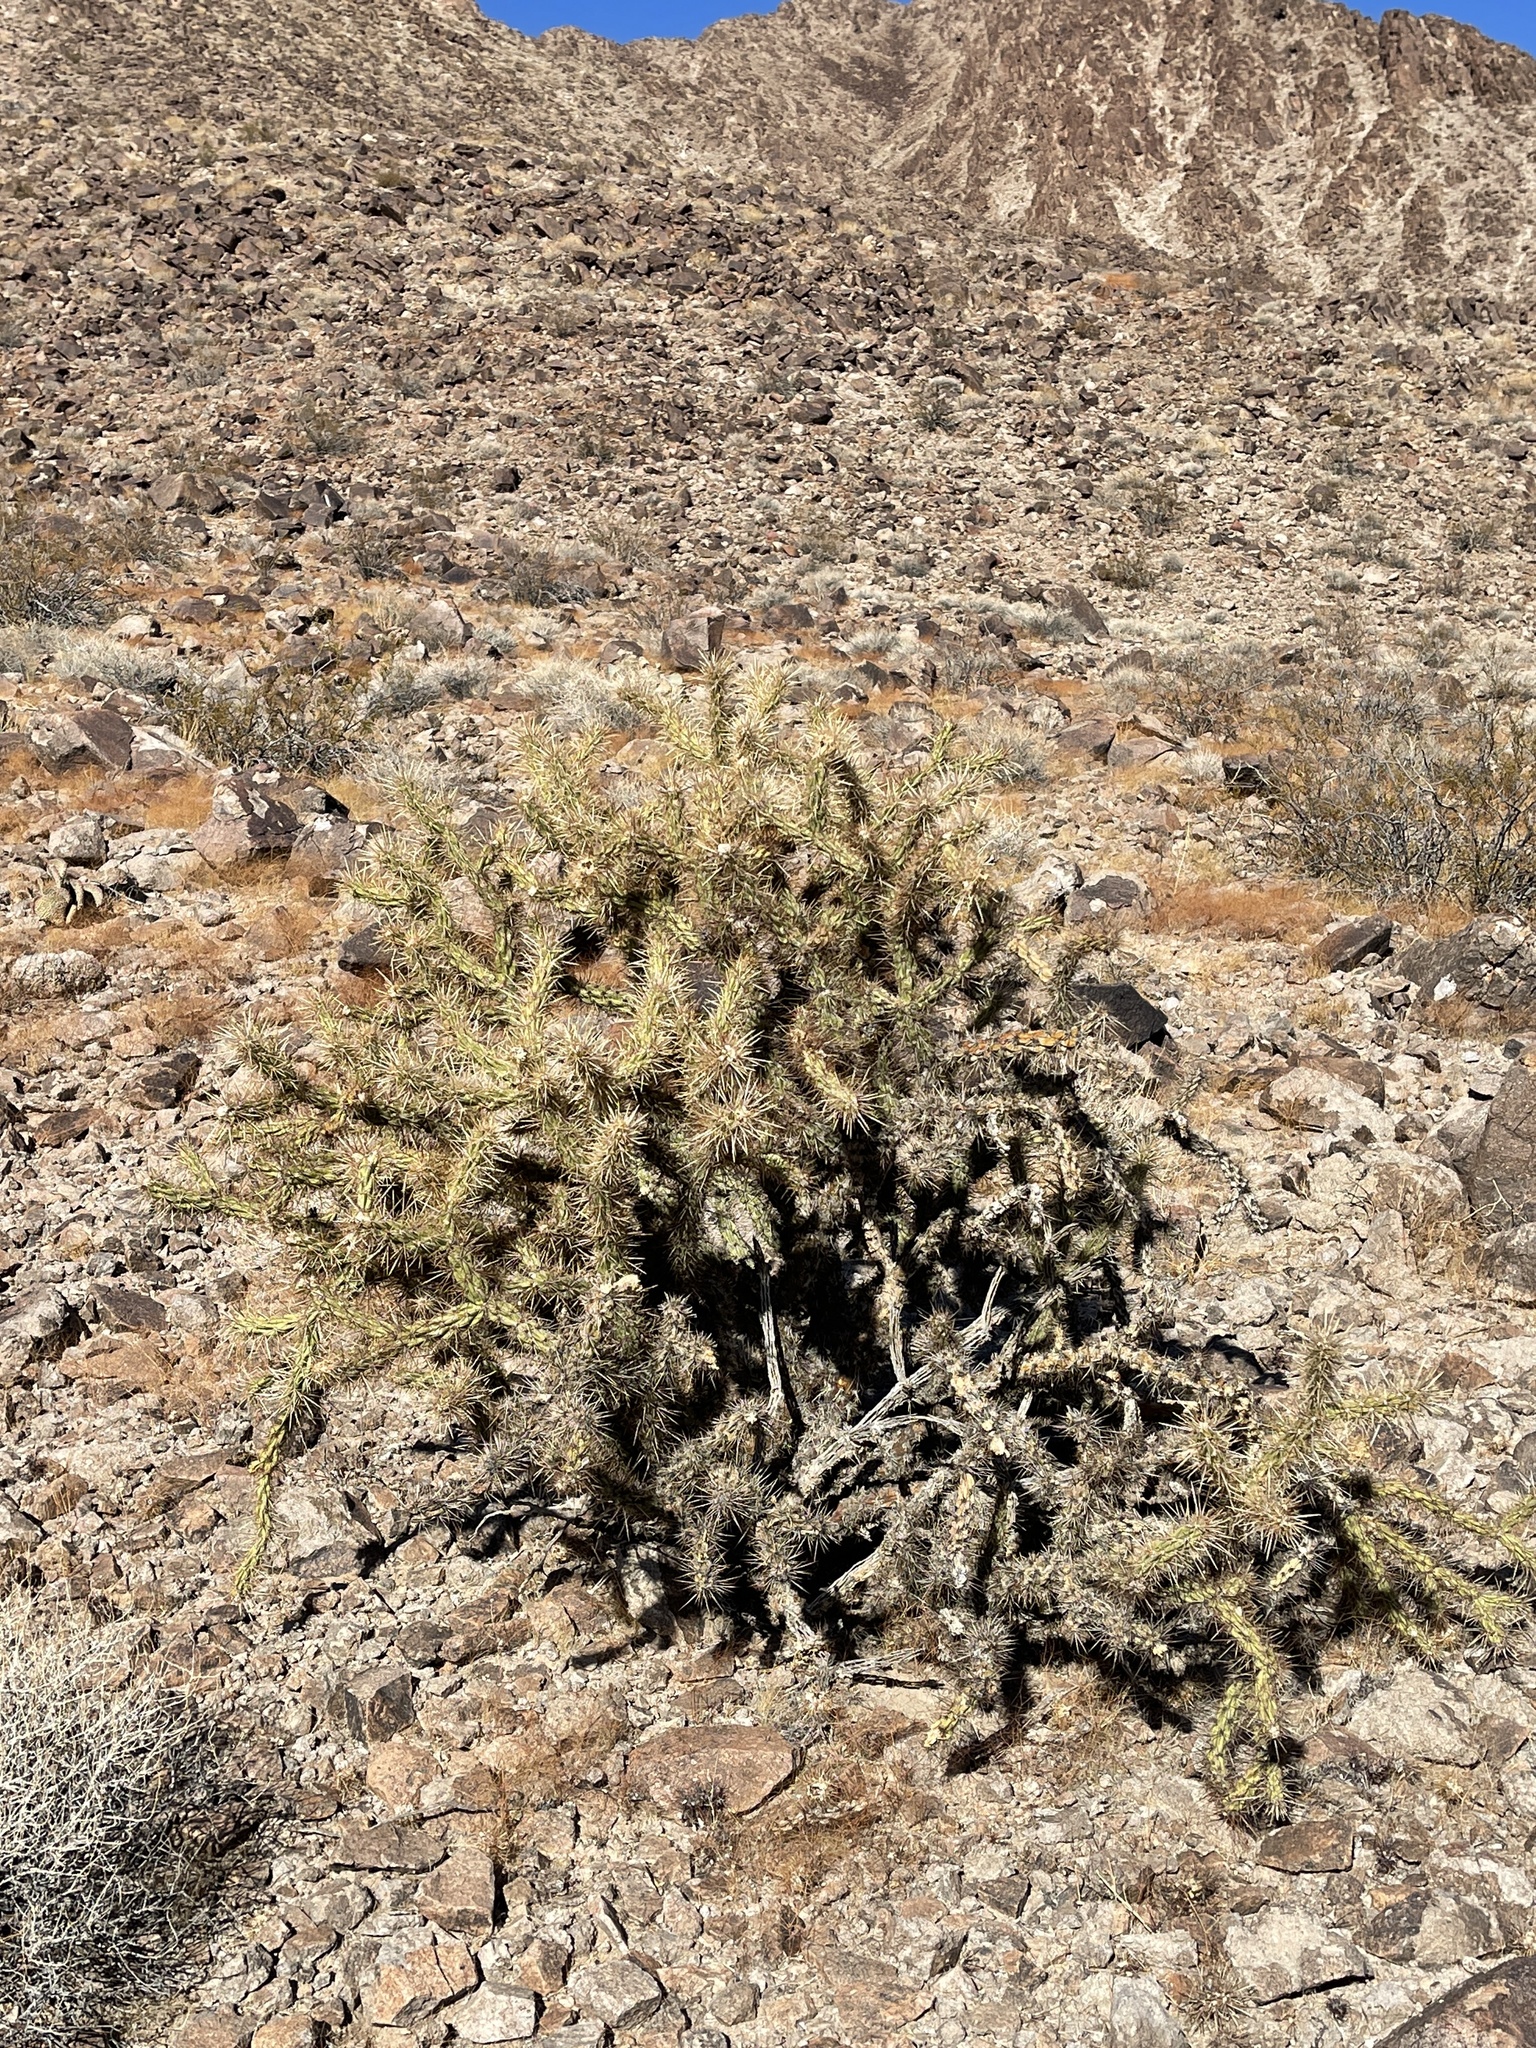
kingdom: Plantae
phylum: Tracheophyta
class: Magnoliopsida
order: Caryophyllales
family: Cactaceae
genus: Cylindropuntia
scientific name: Cylindropuntia acanthocarpa
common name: Buckhorn cholla
